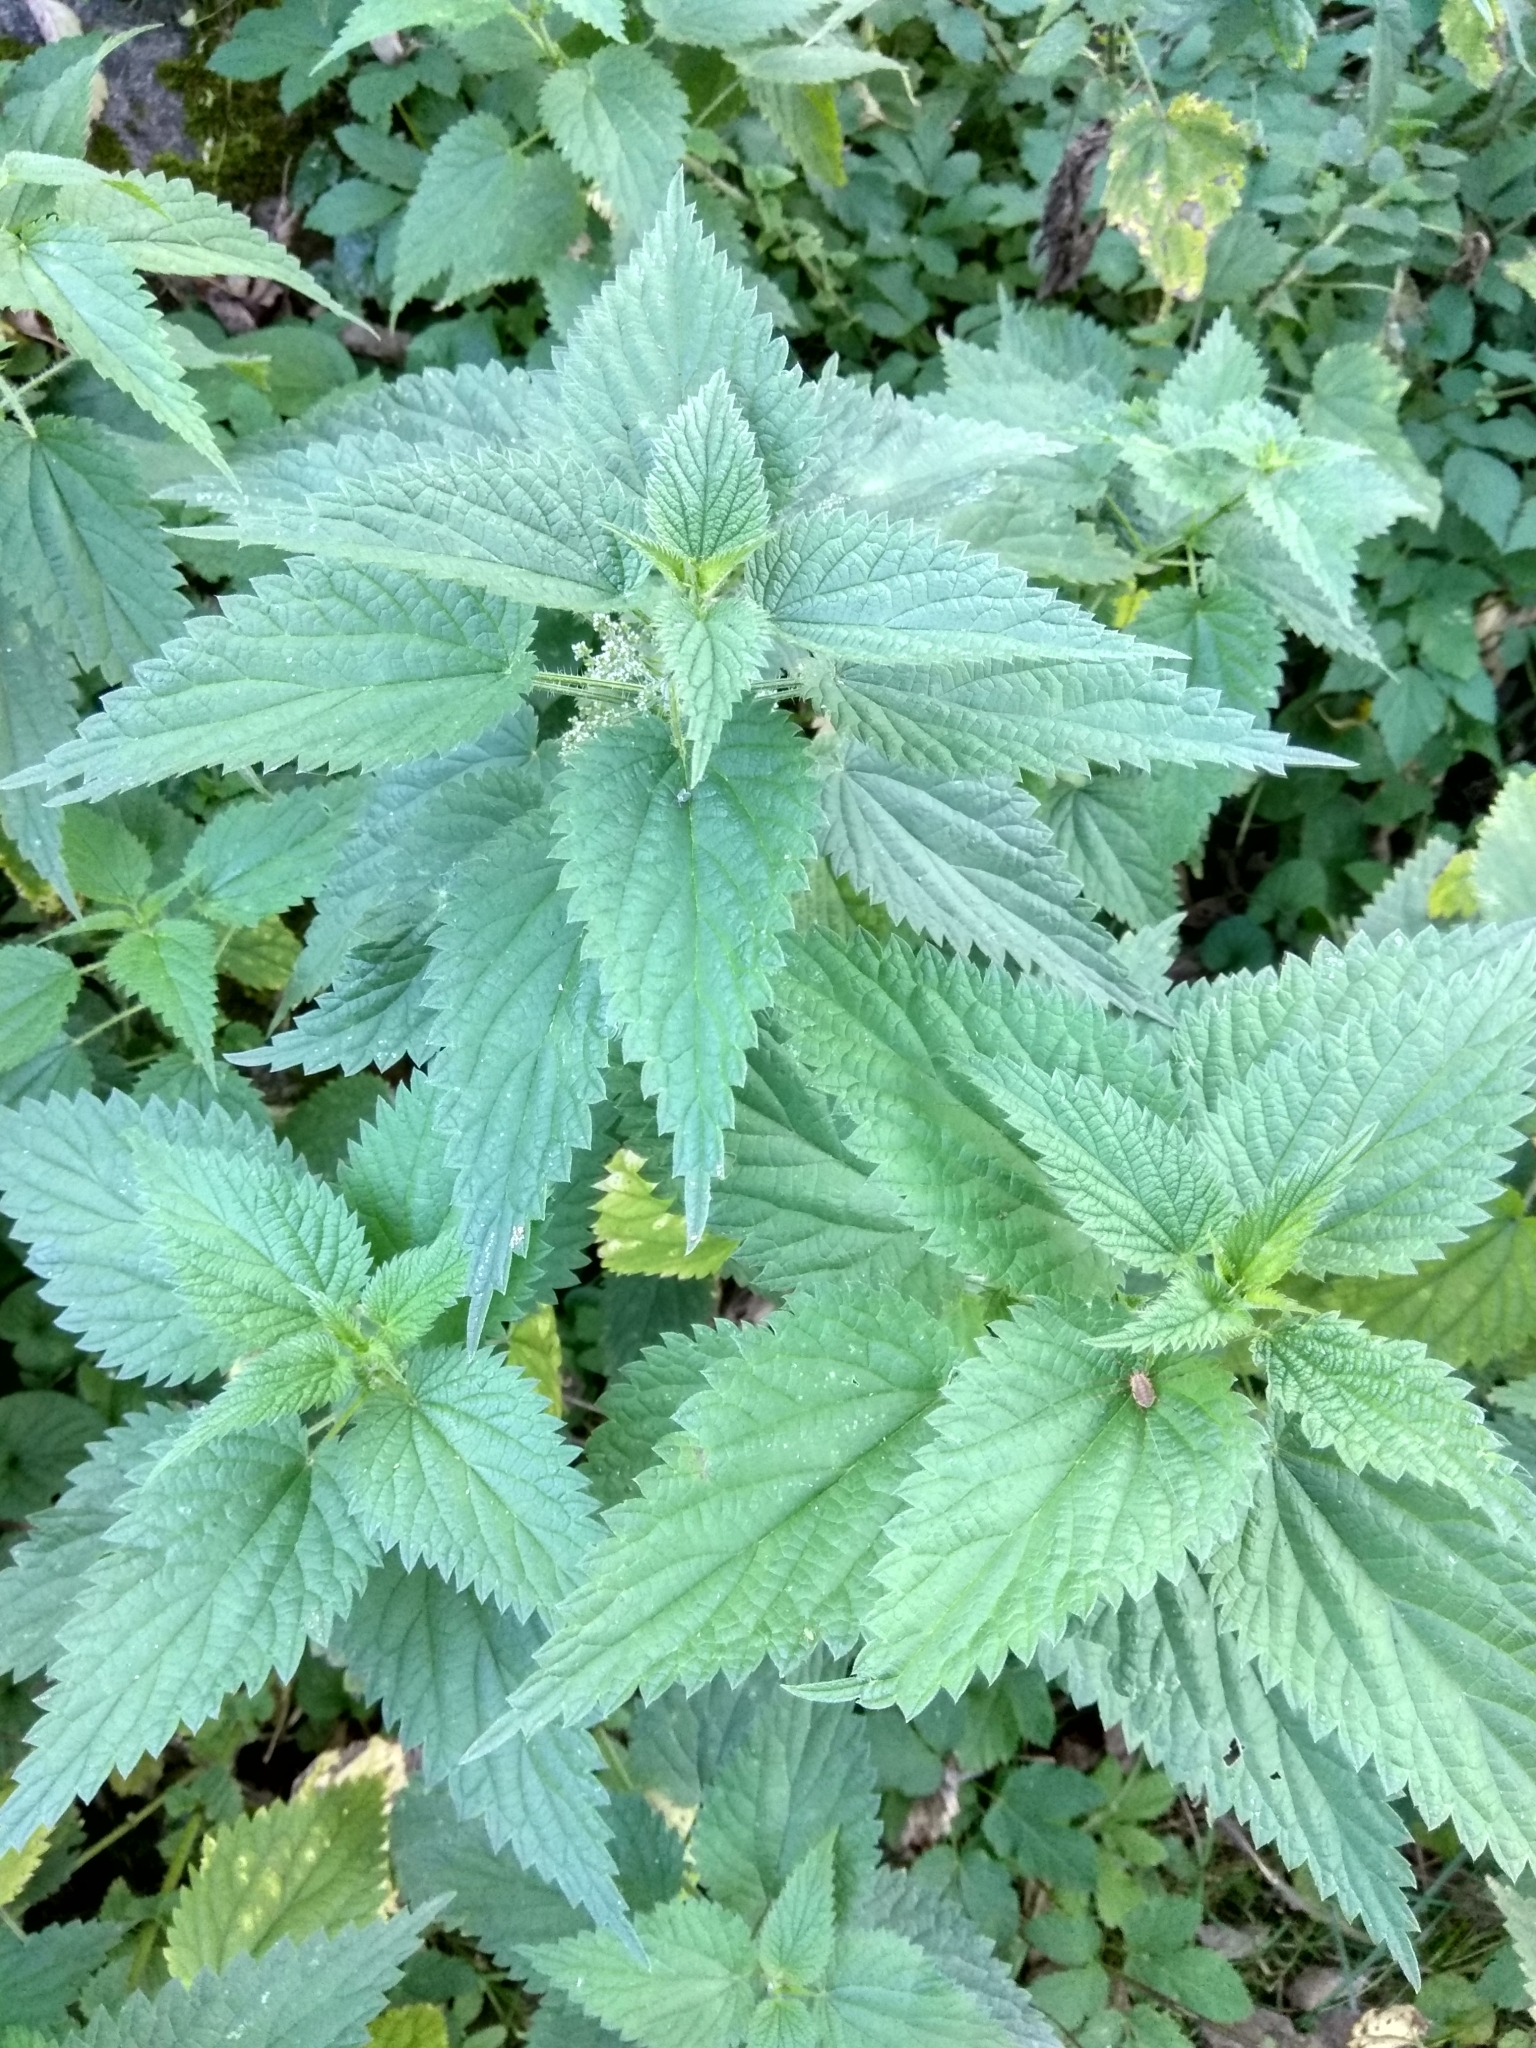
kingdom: Plantae
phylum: Tracheophyta
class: Magnoliopsida
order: Rosales
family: Urticaceae
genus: Urtica
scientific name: Urtica dioica
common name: Common nettle
